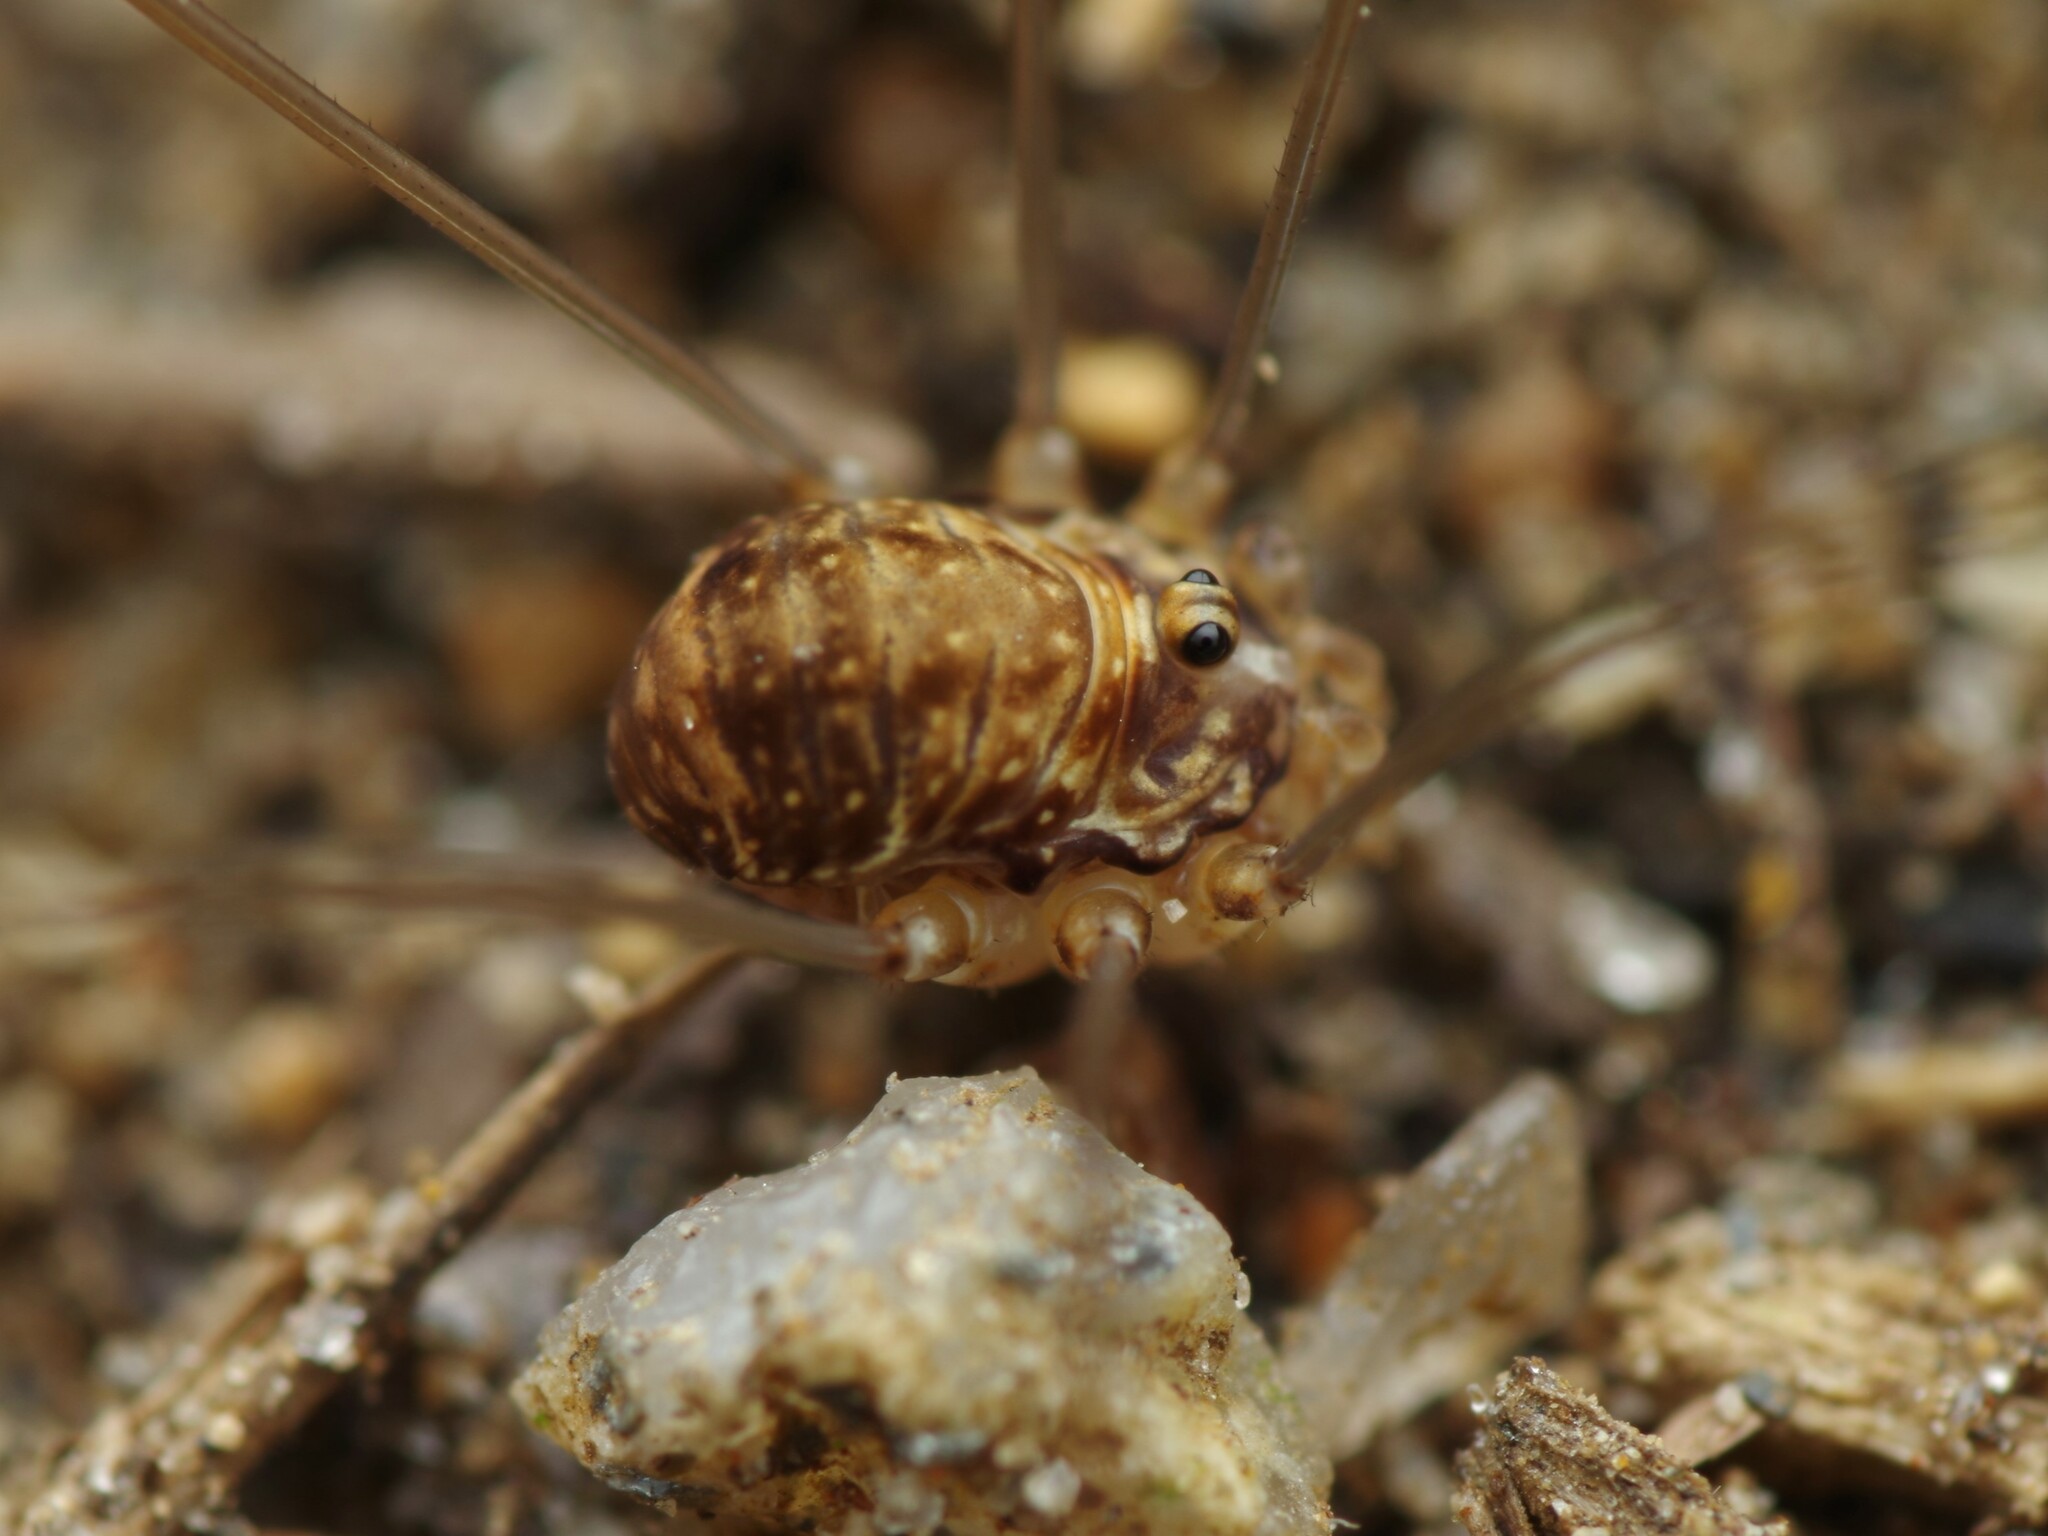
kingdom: Animalia
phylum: Arthropoda
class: Arachnida
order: Opiliones
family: Sclerosomatidae
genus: Leiobunum
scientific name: Leiobunum blackwalli
